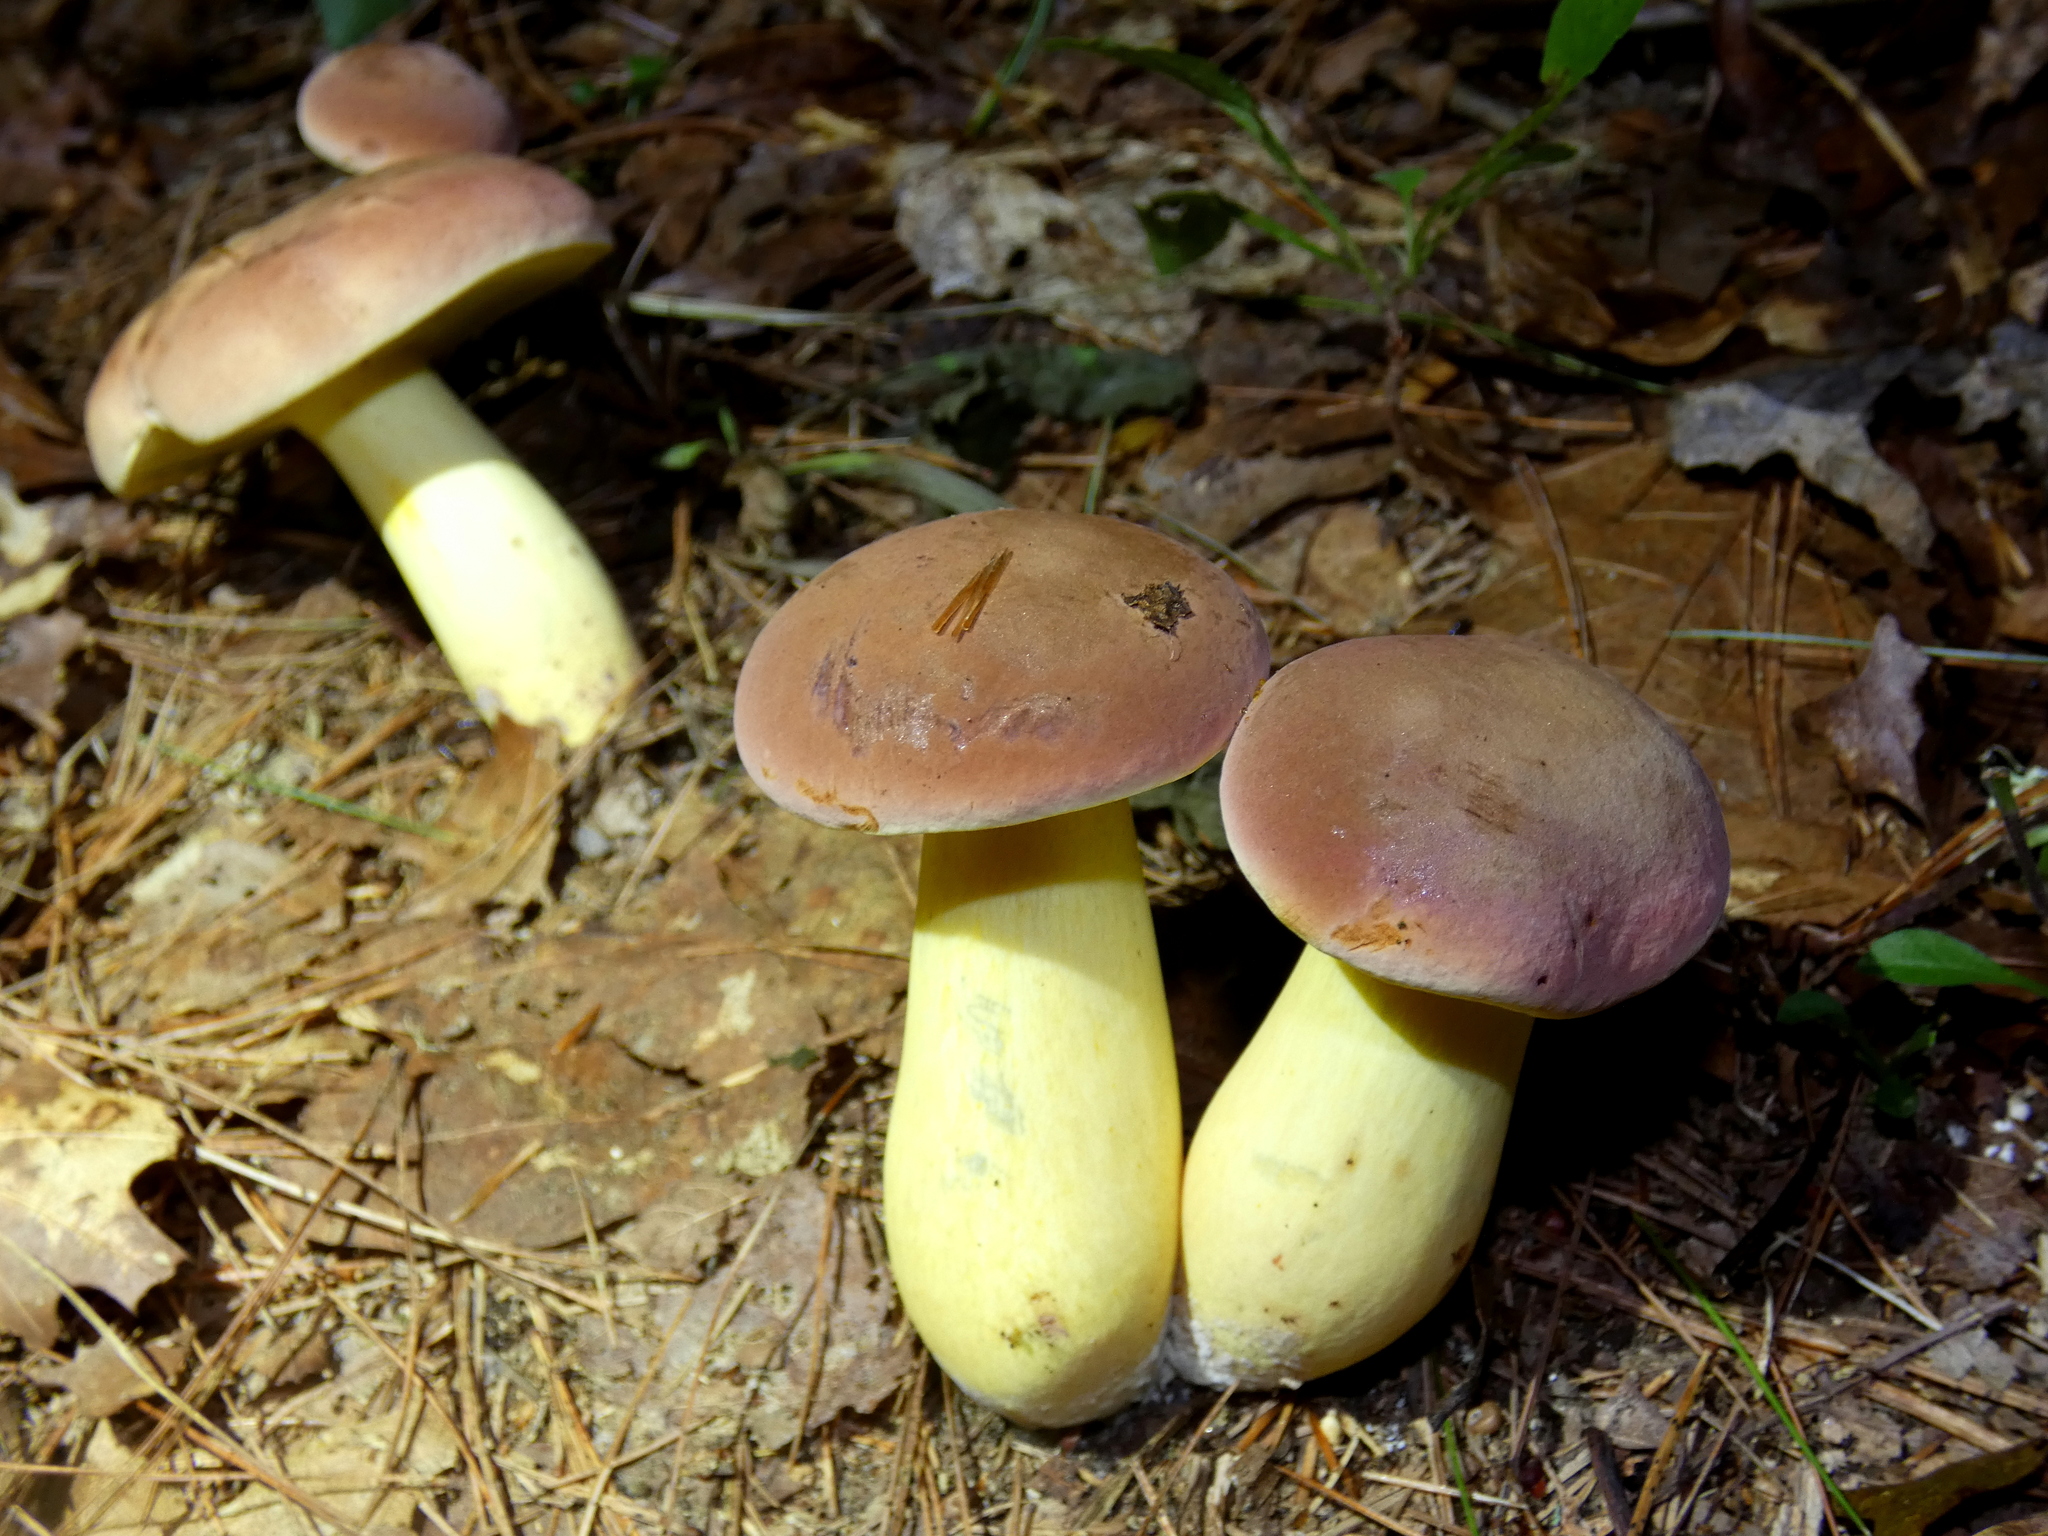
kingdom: Fungi
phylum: Basidiomycota
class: Agaricomycetes
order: Boletales
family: Boletaceae
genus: Baorangia
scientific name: Baorangia bicolor
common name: Two-colored bolete
